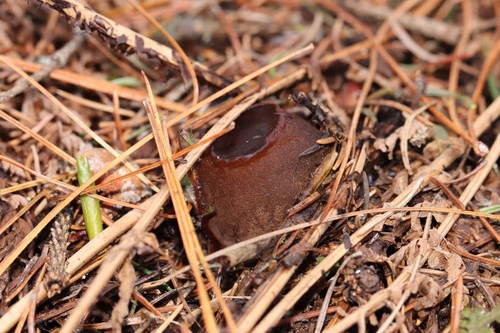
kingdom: Fungi
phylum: Ascomycota
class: Pezizomycetes
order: Pezizales
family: Sarcosomataceae
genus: Sarcosoma
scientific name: Sarcosoma globosum
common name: Charred-pancake cup
